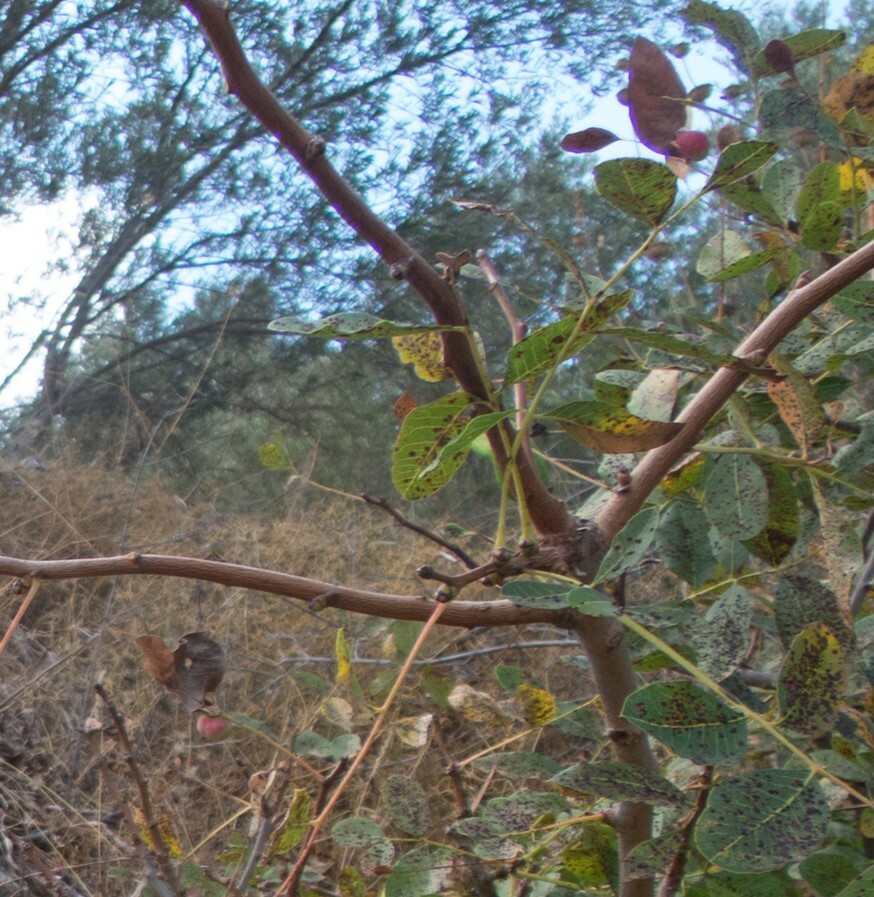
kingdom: Animalia
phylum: Arthropoda
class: Insecta
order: Hemiptera
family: Aphididae
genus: Geoica
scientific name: Geoica utricularia
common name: Aphid
